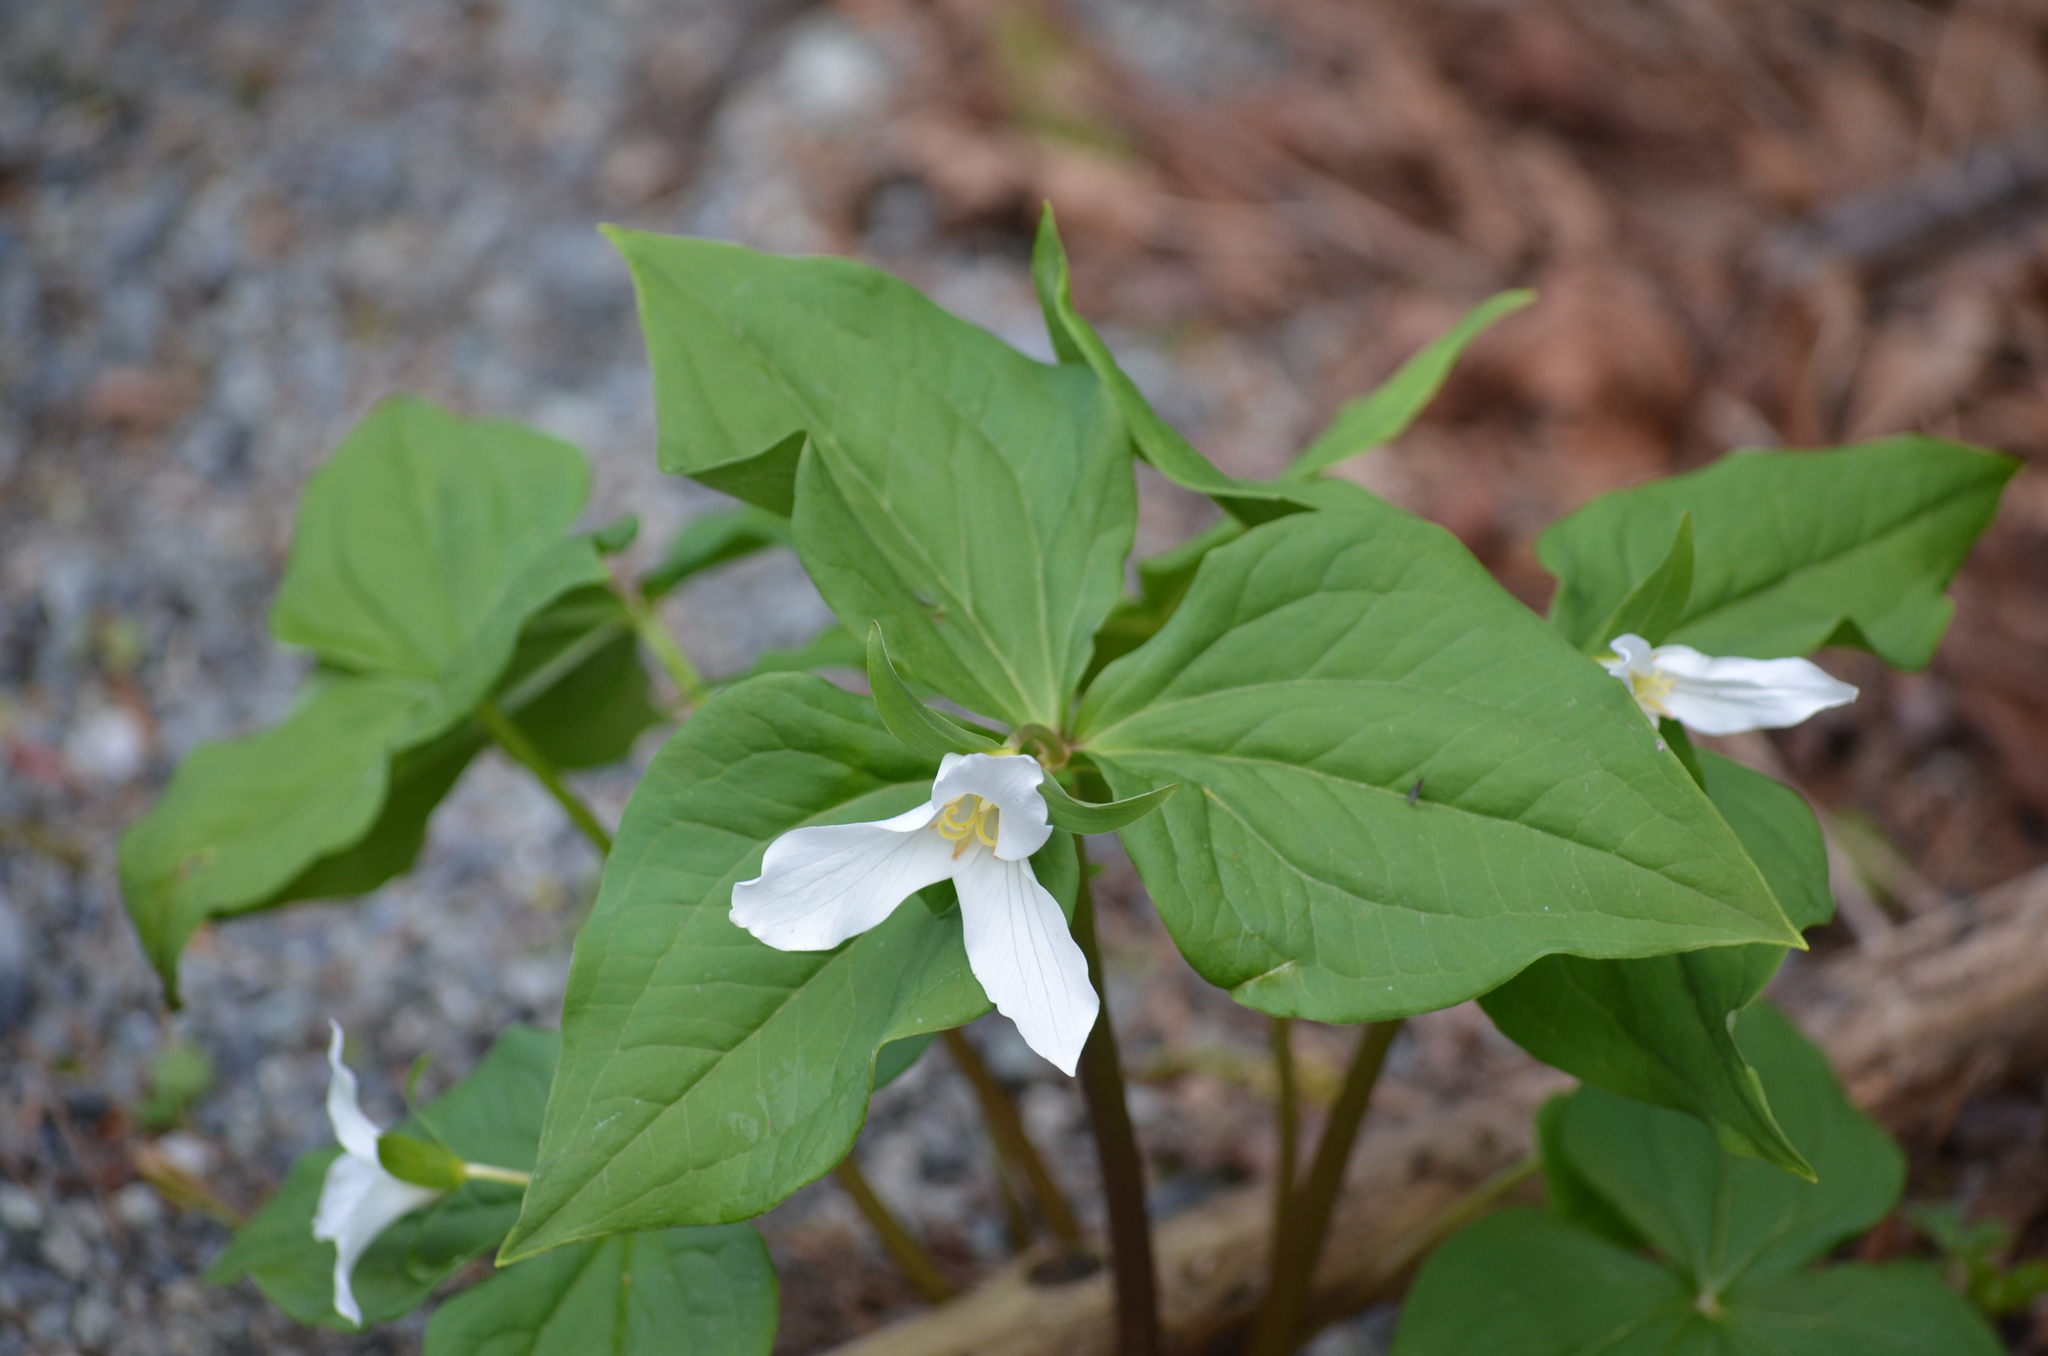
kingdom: Plantae
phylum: Tracheophyta
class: Liliopsida
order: Liliales
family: Melanthiaceae
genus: Trillium
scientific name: Trillium ovatum
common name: Pacific trillium
